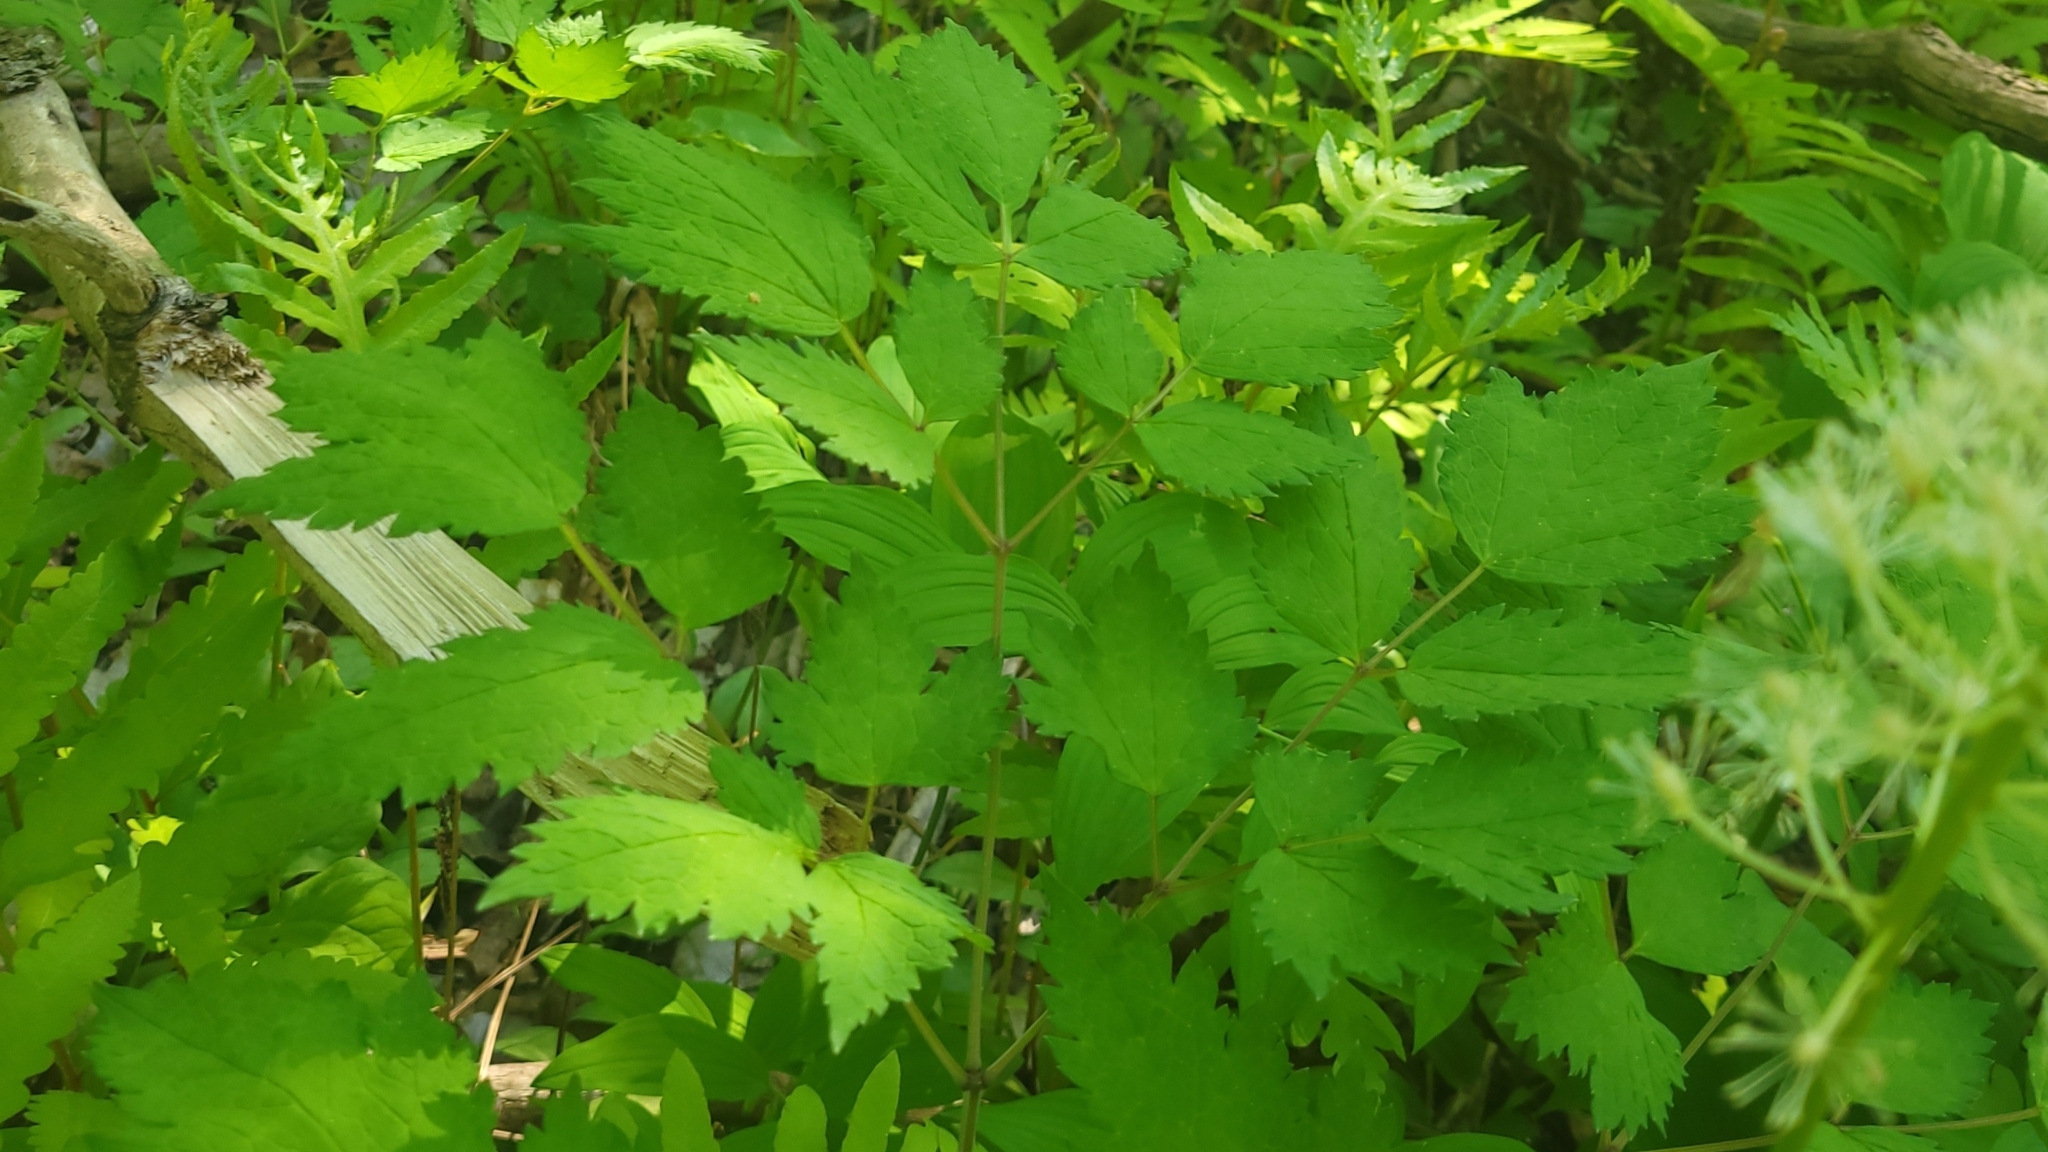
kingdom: Plantae
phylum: Tracheophyta
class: Magnoliopsida
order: Ranunculales
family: Ranunculaceae
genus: Actaea
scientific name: Actaea rubra
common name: Red baneberry
